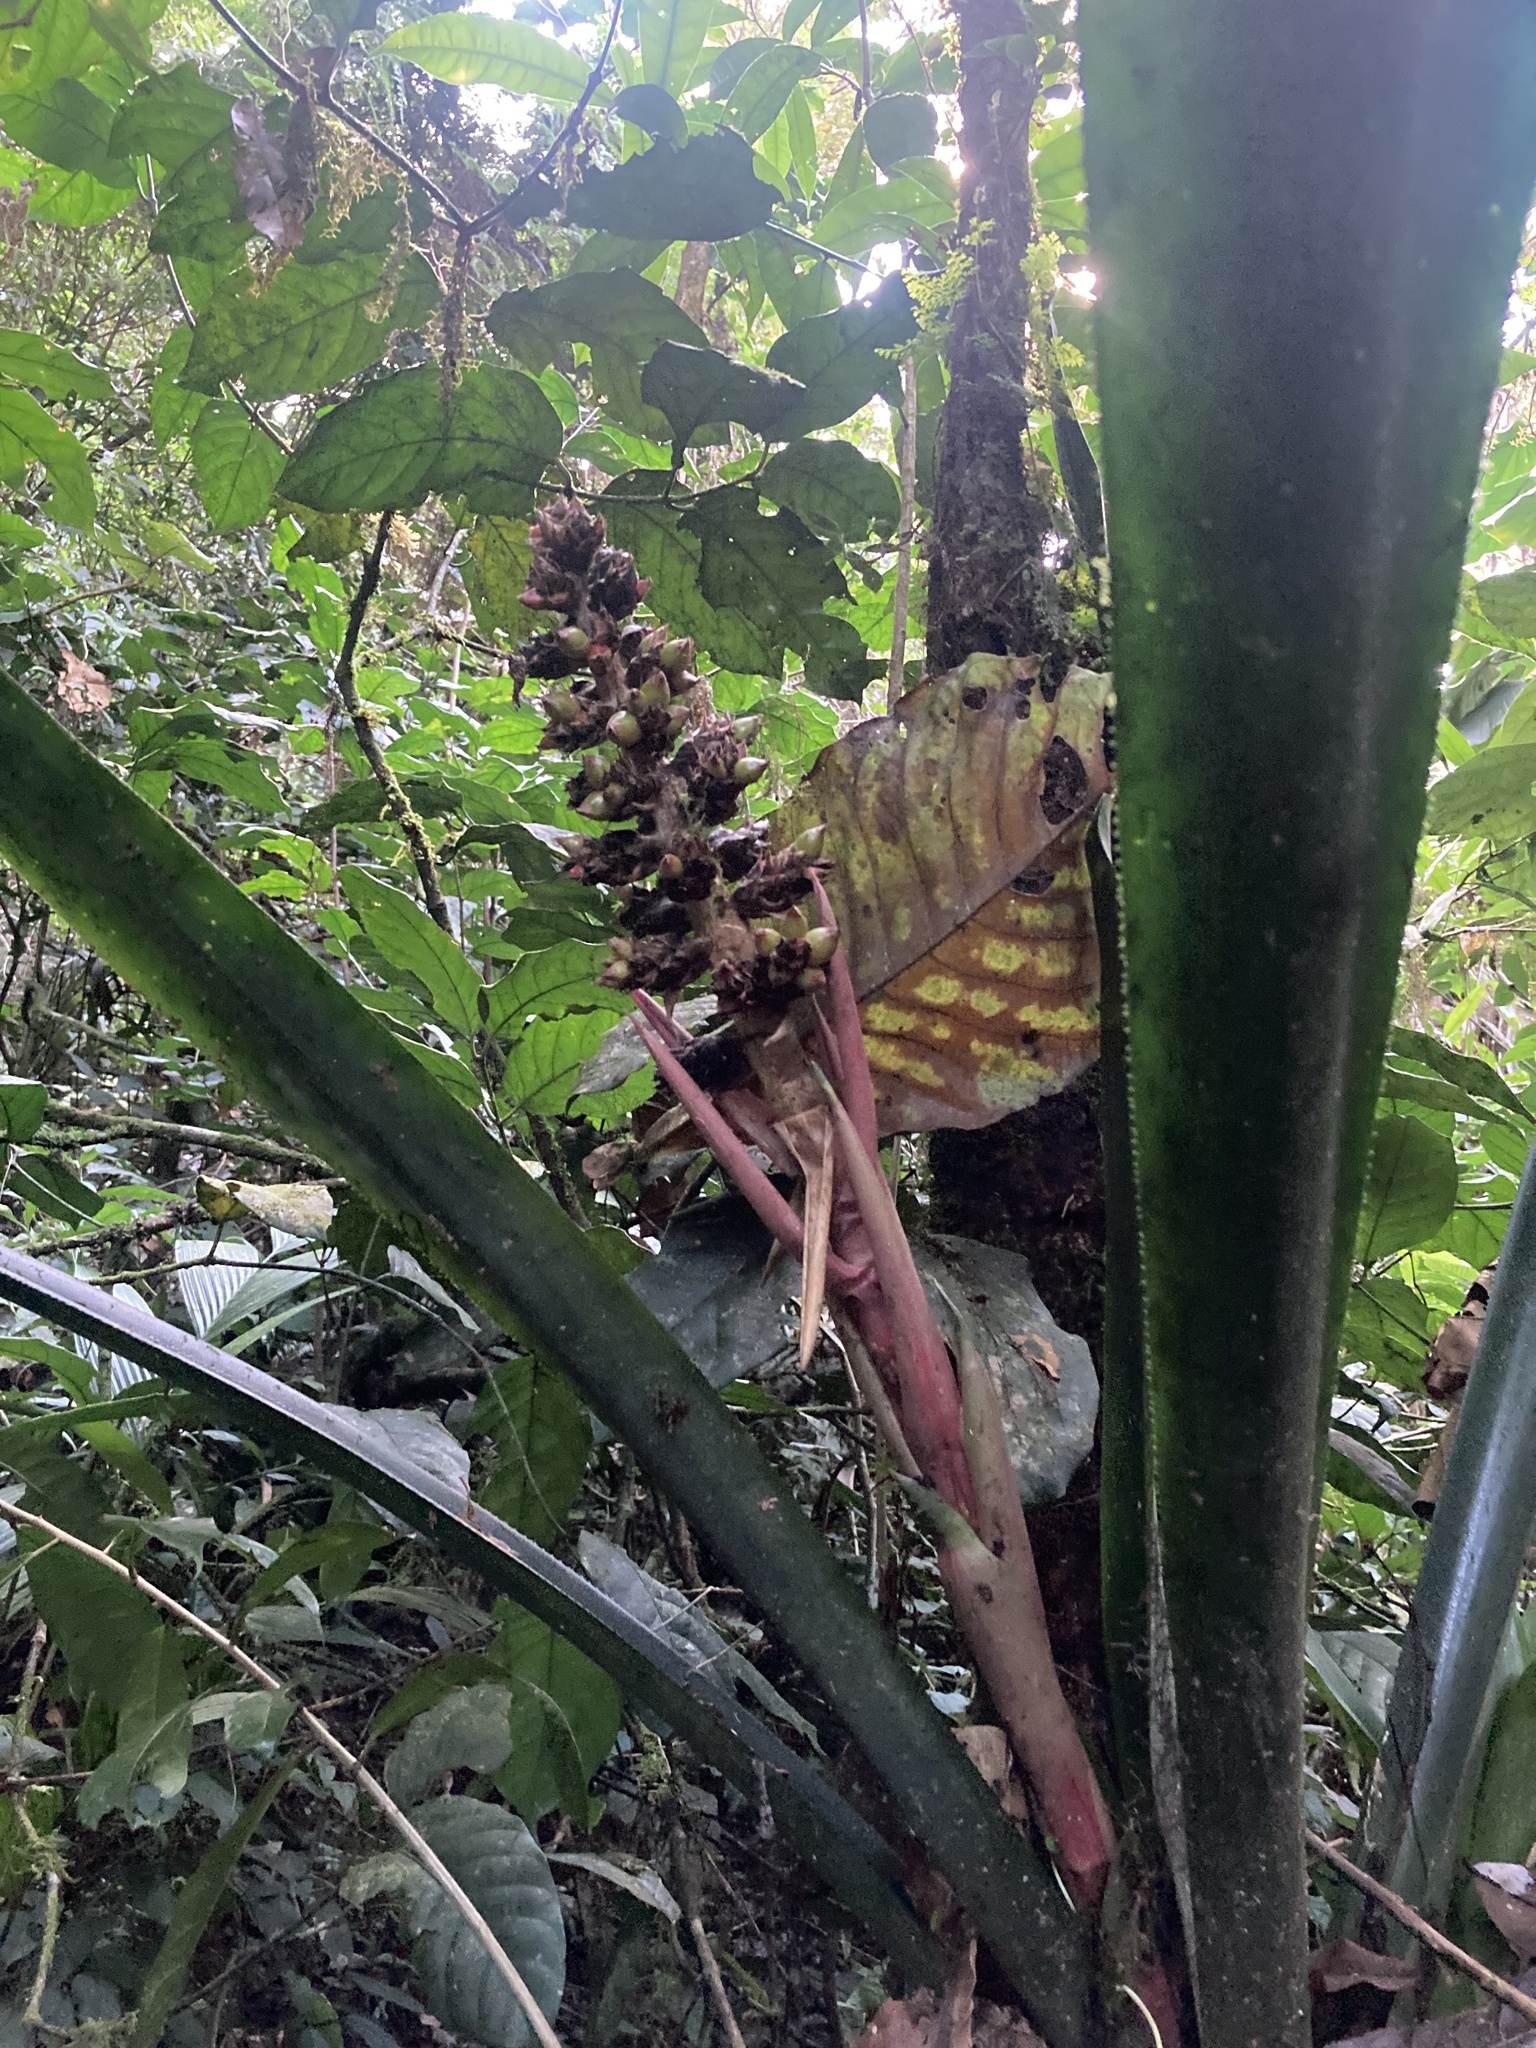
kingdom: Plantae
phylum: Tracheophyta
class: Liliopsida
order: Poales
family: Bromeliaceae
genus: Hohenbergiopsis
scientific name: Hohenbergiopsis guatemalensis
